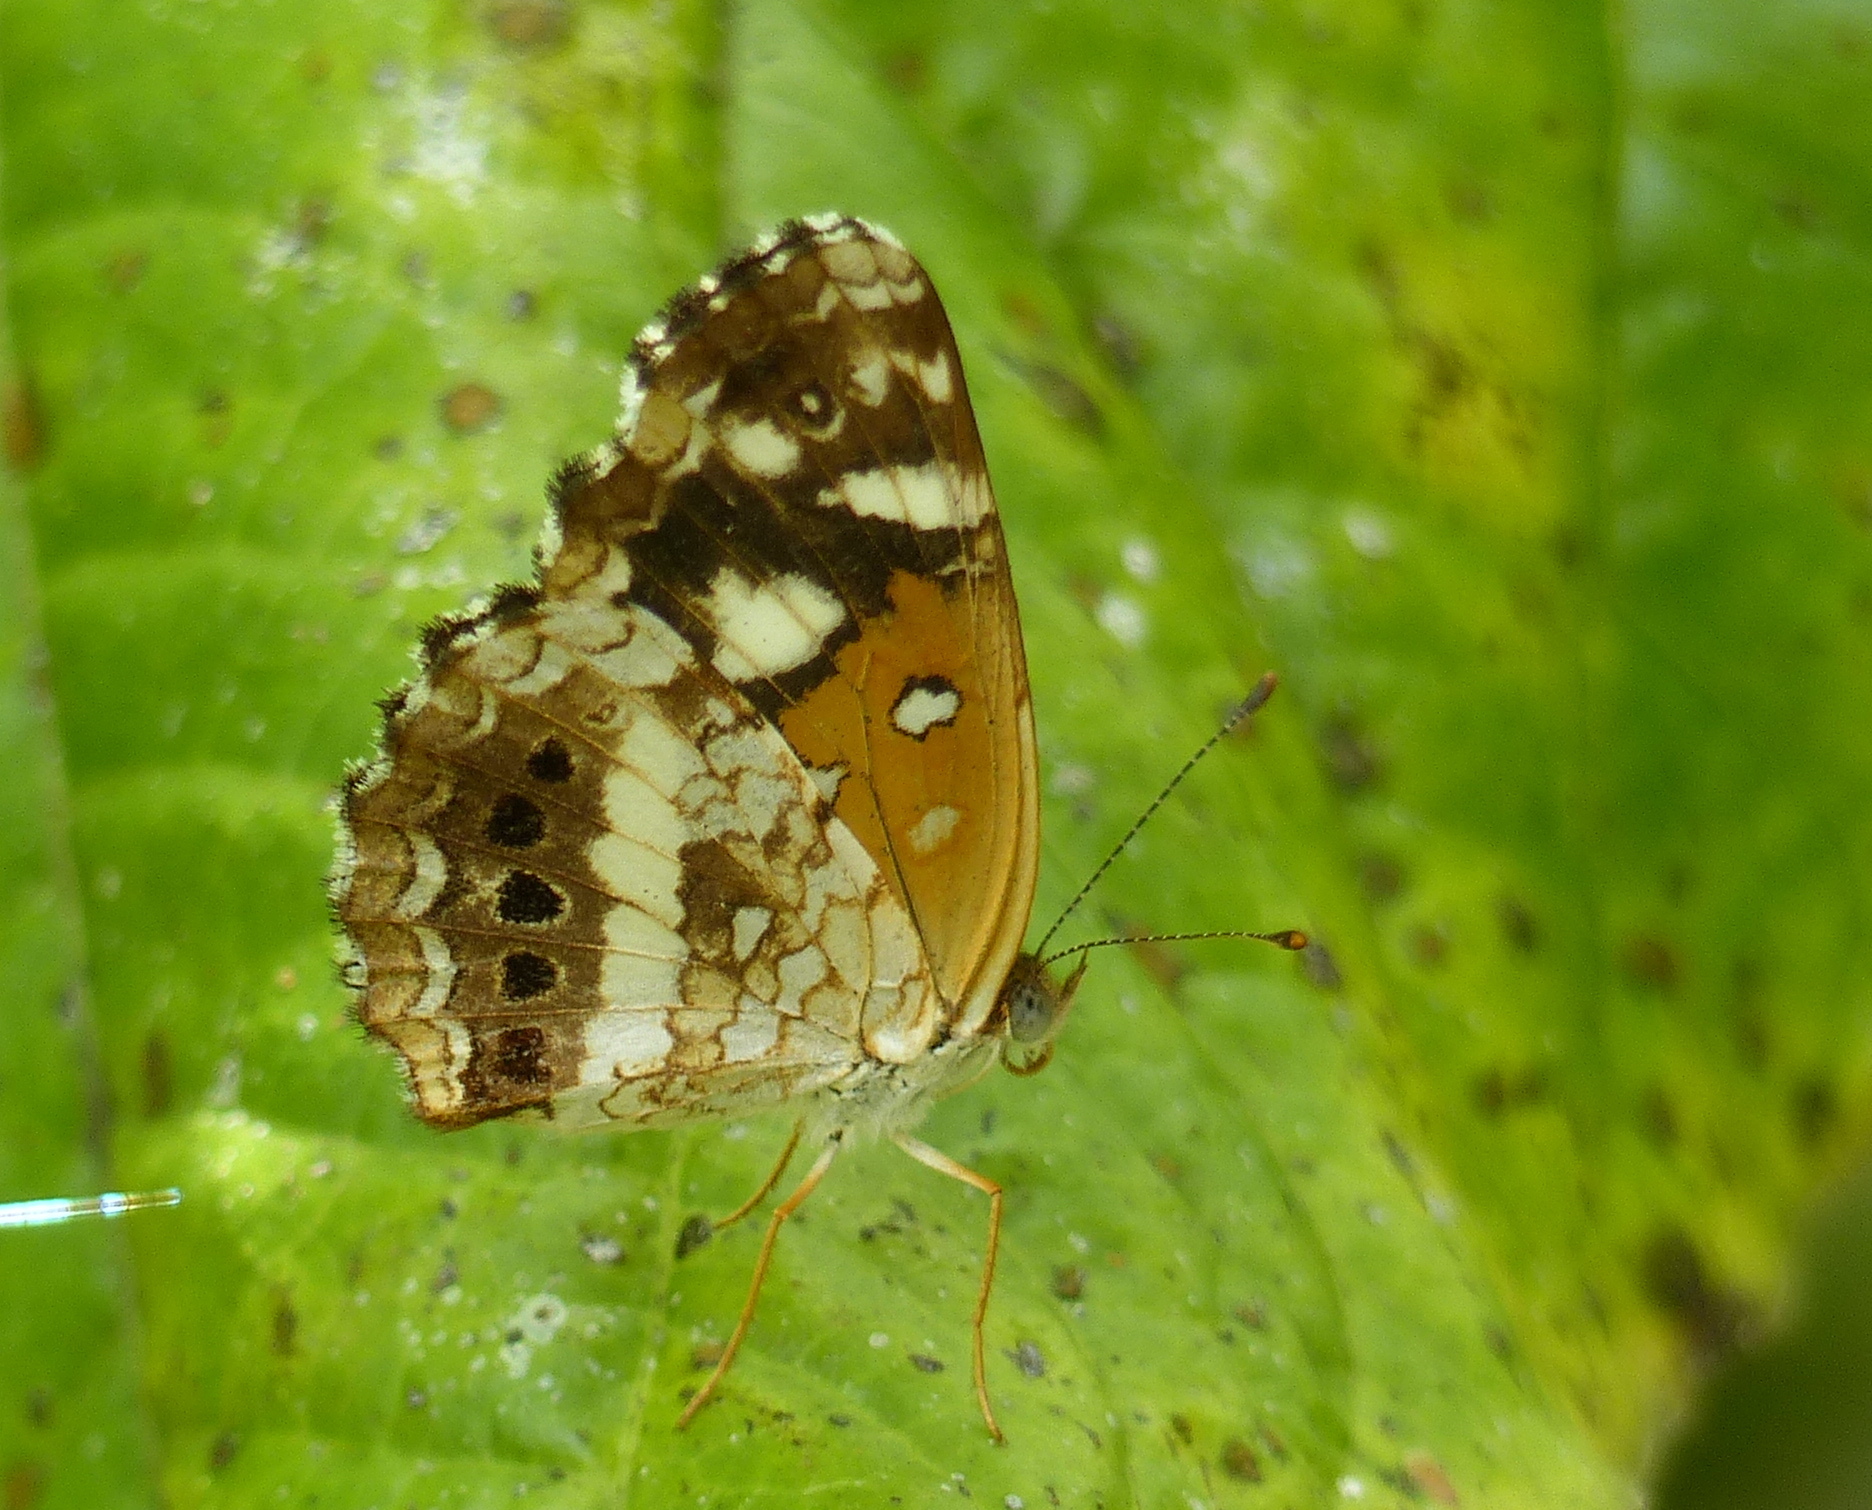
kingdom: Animalia
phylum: Arthropoda
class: Insecta
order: Lepidoptera
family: Nymphalidae
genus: Ortilia
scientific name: Ortilia ithra
